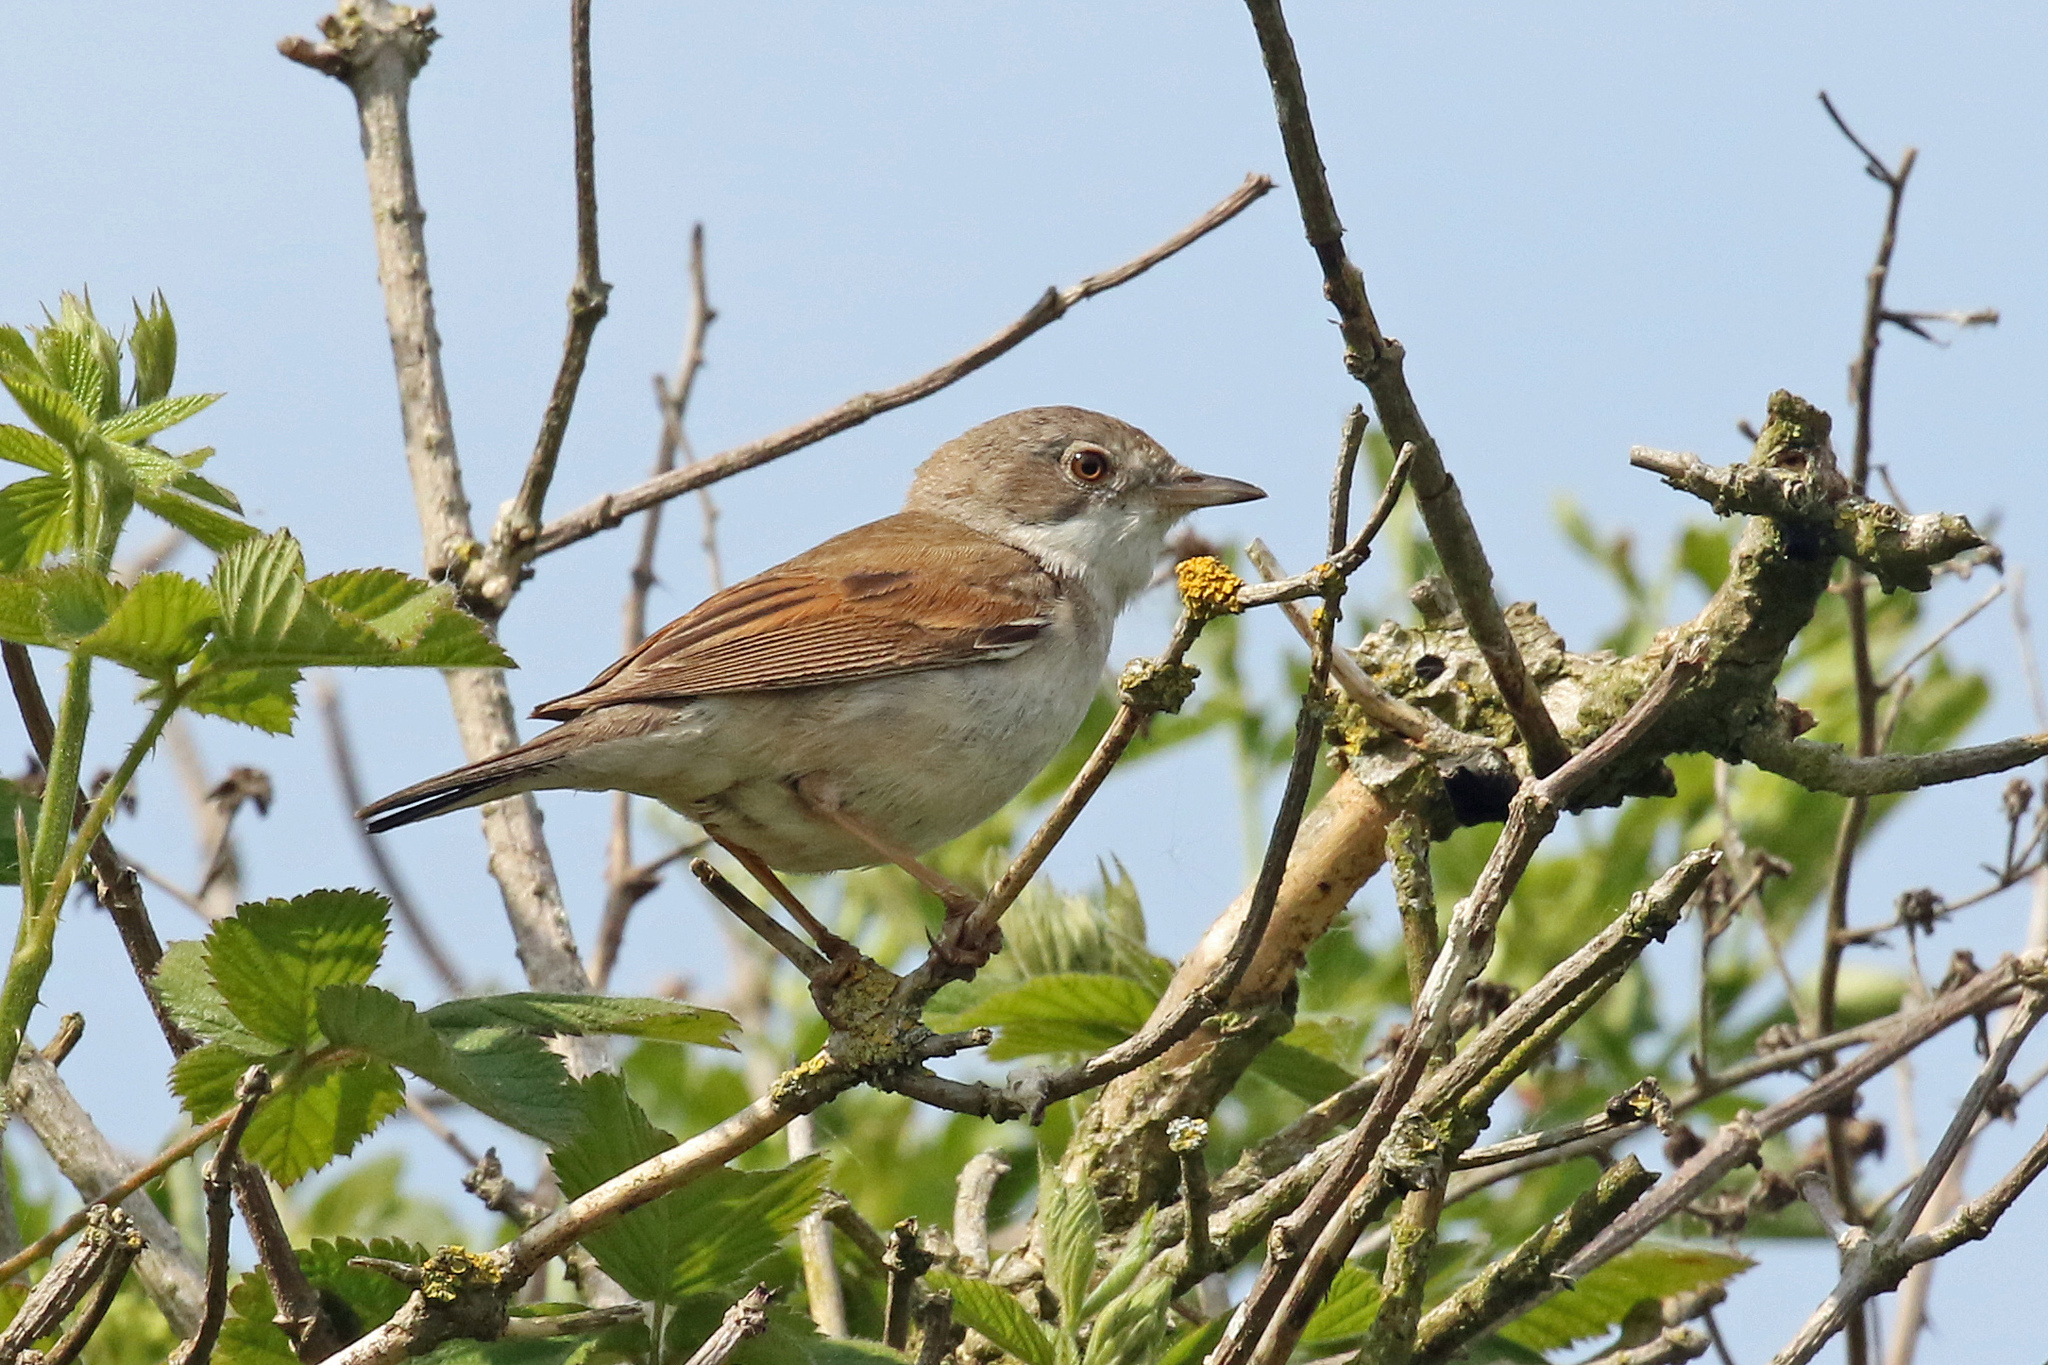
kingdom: Animalia
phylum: Chordata
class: Aves
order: Passeriformes
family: Sylviidae
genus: Sylvia
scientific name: Sylvia communis
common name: Common whitethroat
